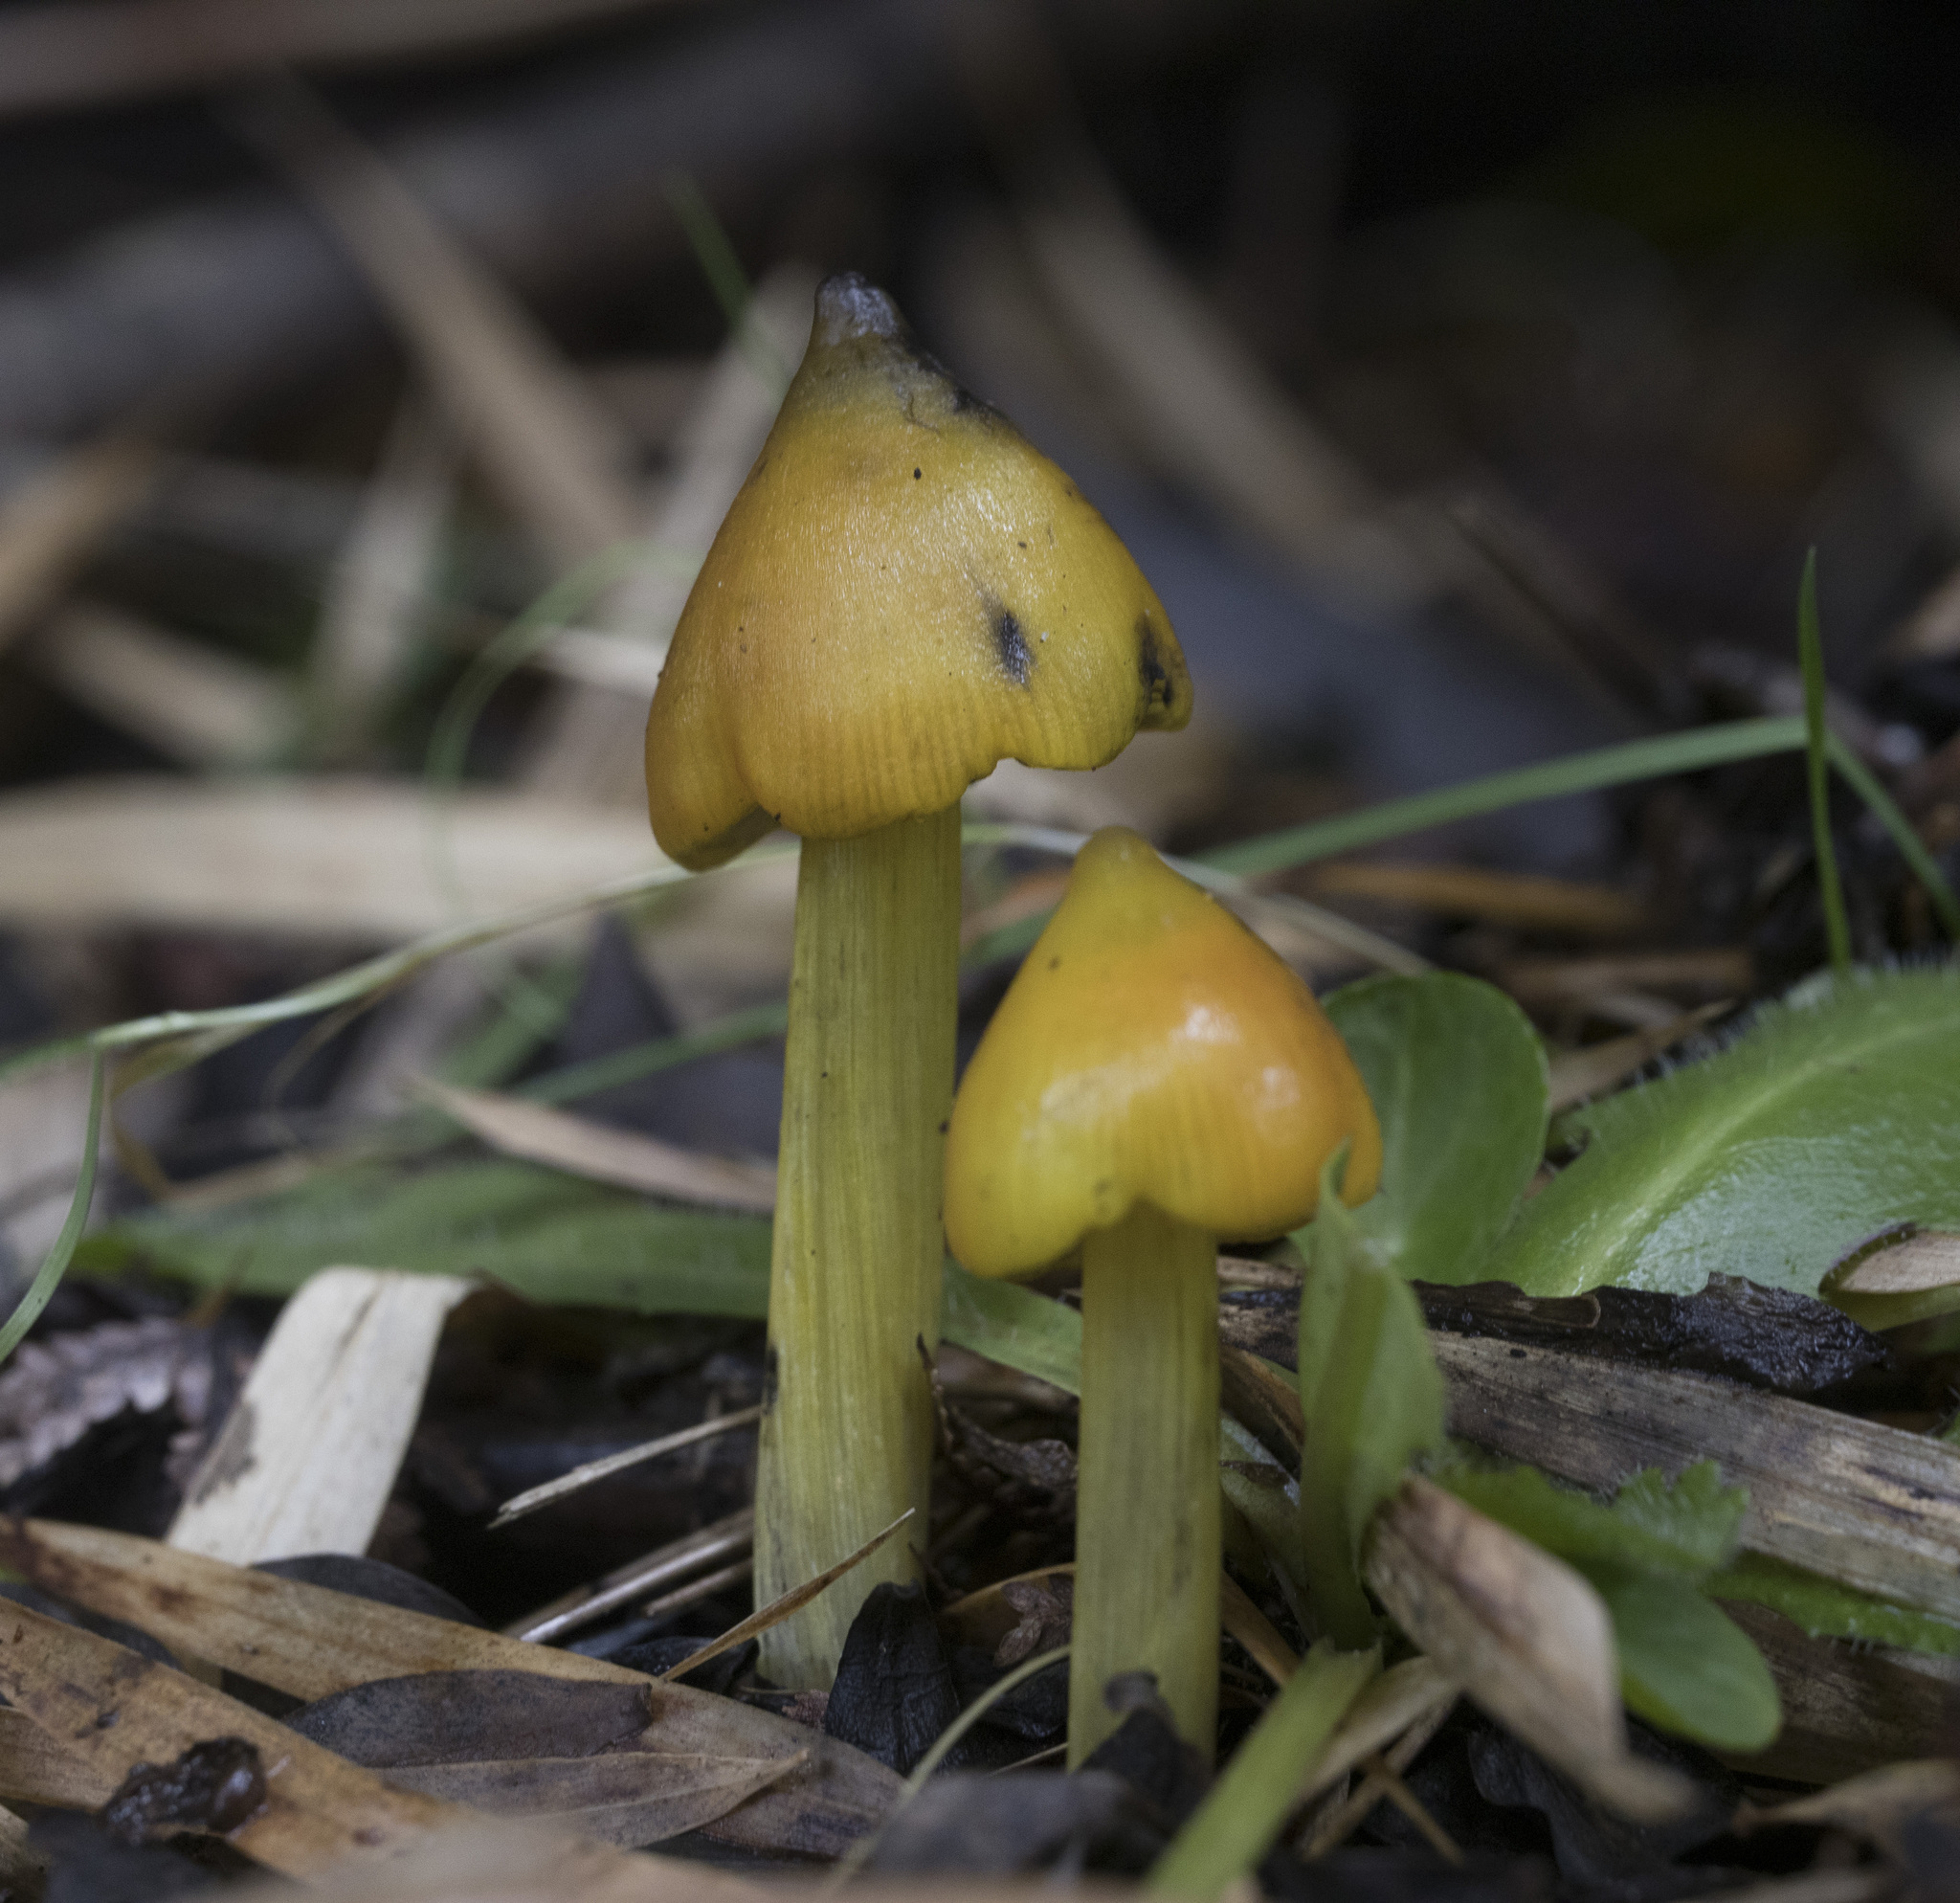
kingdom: Fungi
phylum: Basidiomycota
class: Agaricomycetes
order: Agaricales
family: Hygrophoraceae
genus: Hygrocybe
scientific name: Hygrocybe conica
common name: Blackening wax-cap
